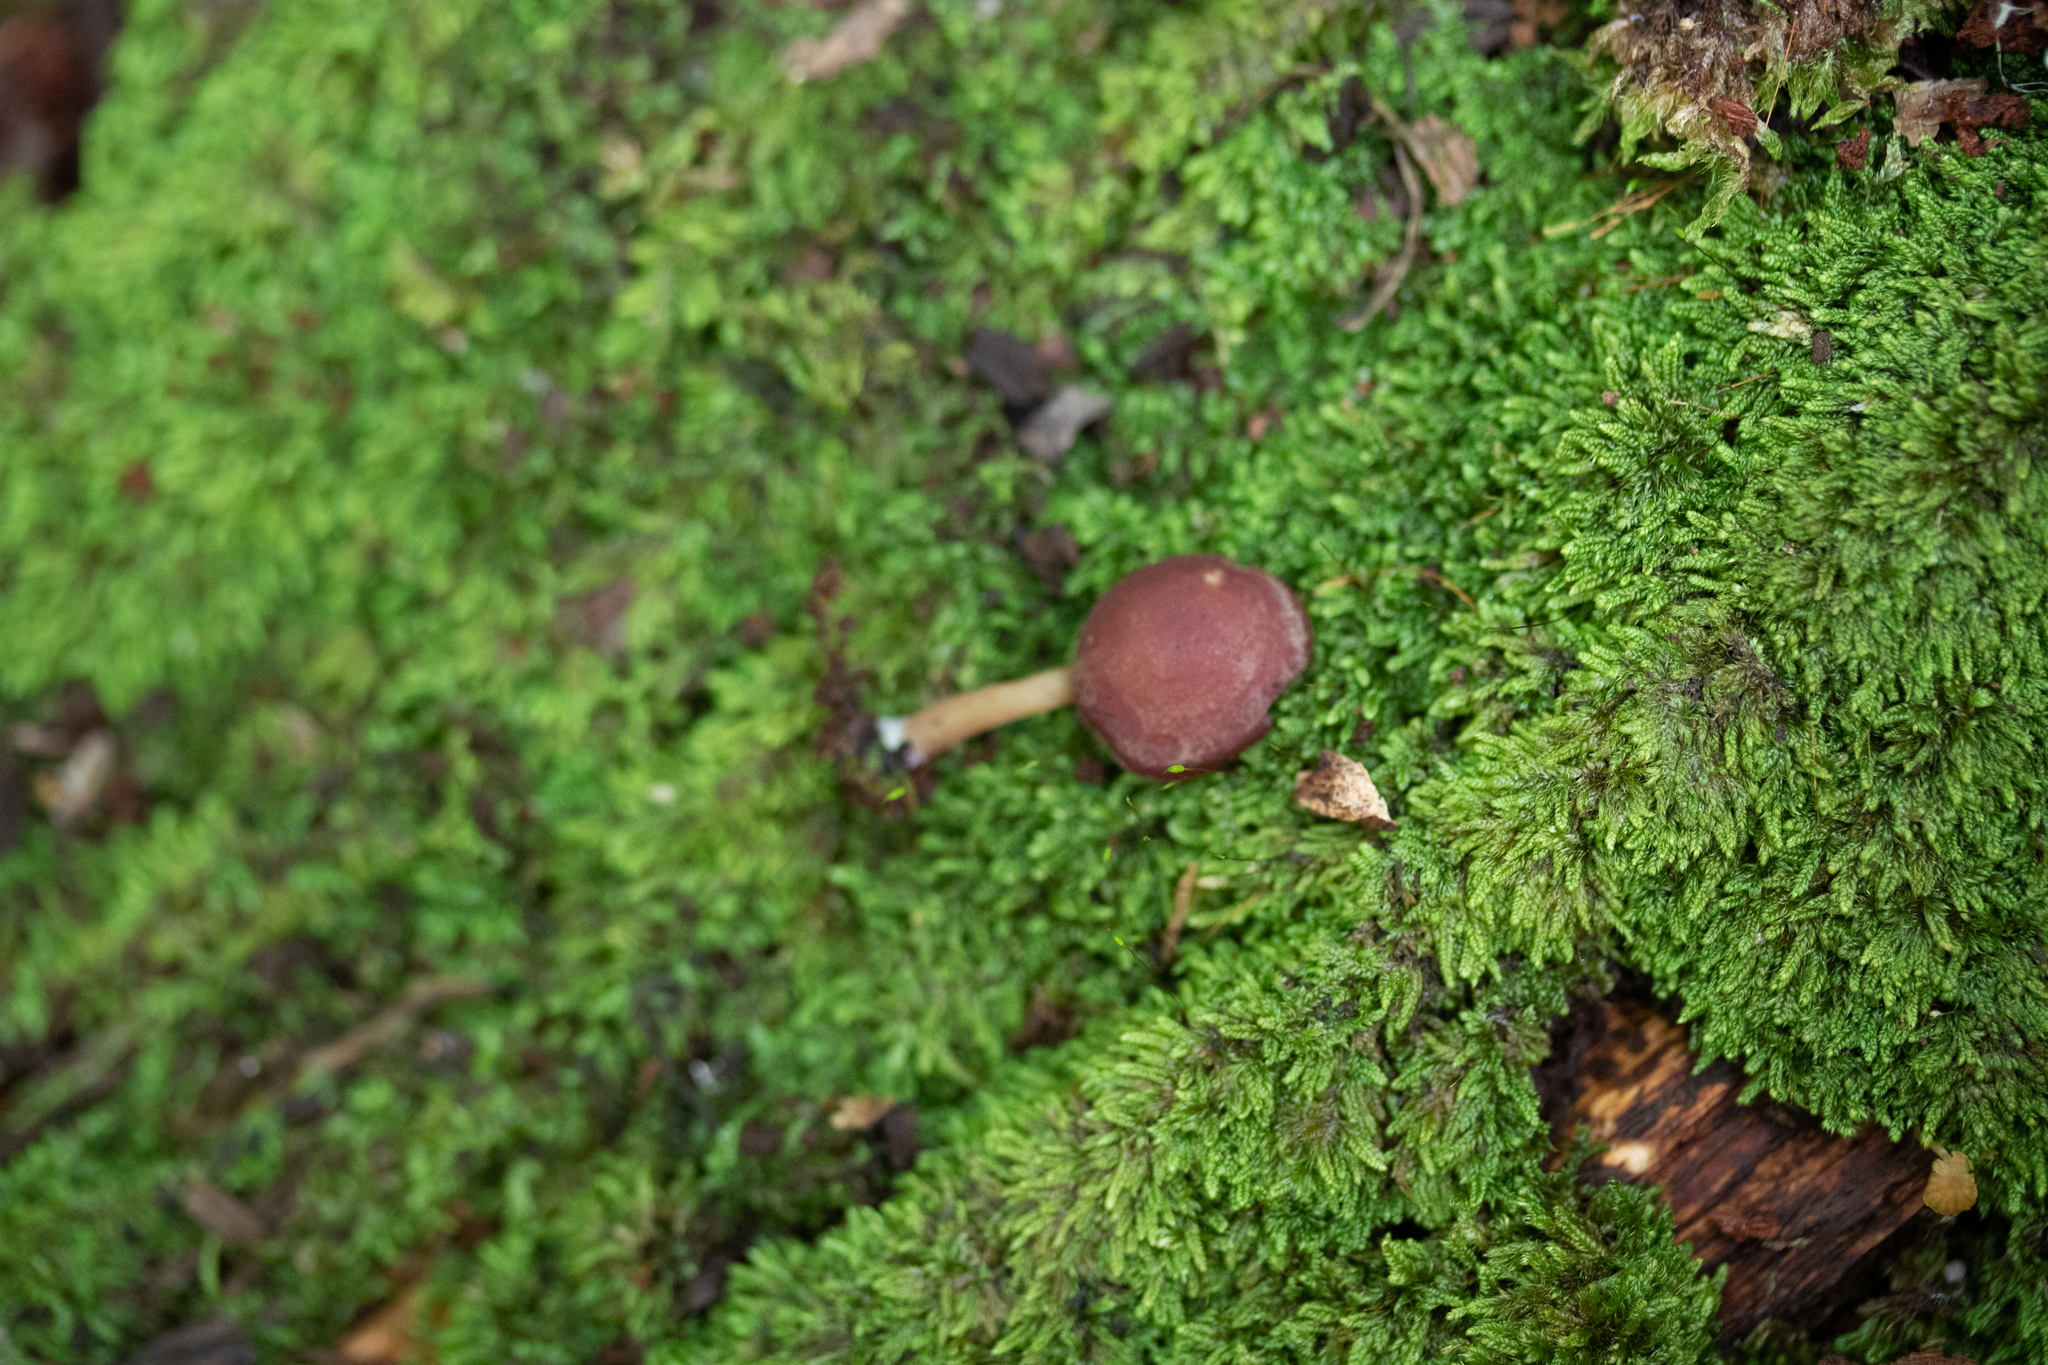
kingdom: Fungi
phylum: Basidiomycota
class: Agaricomycetes
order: Agaricales
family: Callistosporiaceae
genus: Callistosporium
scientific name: Callistosporium purpureomarginatum
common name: Purple-edged lute
